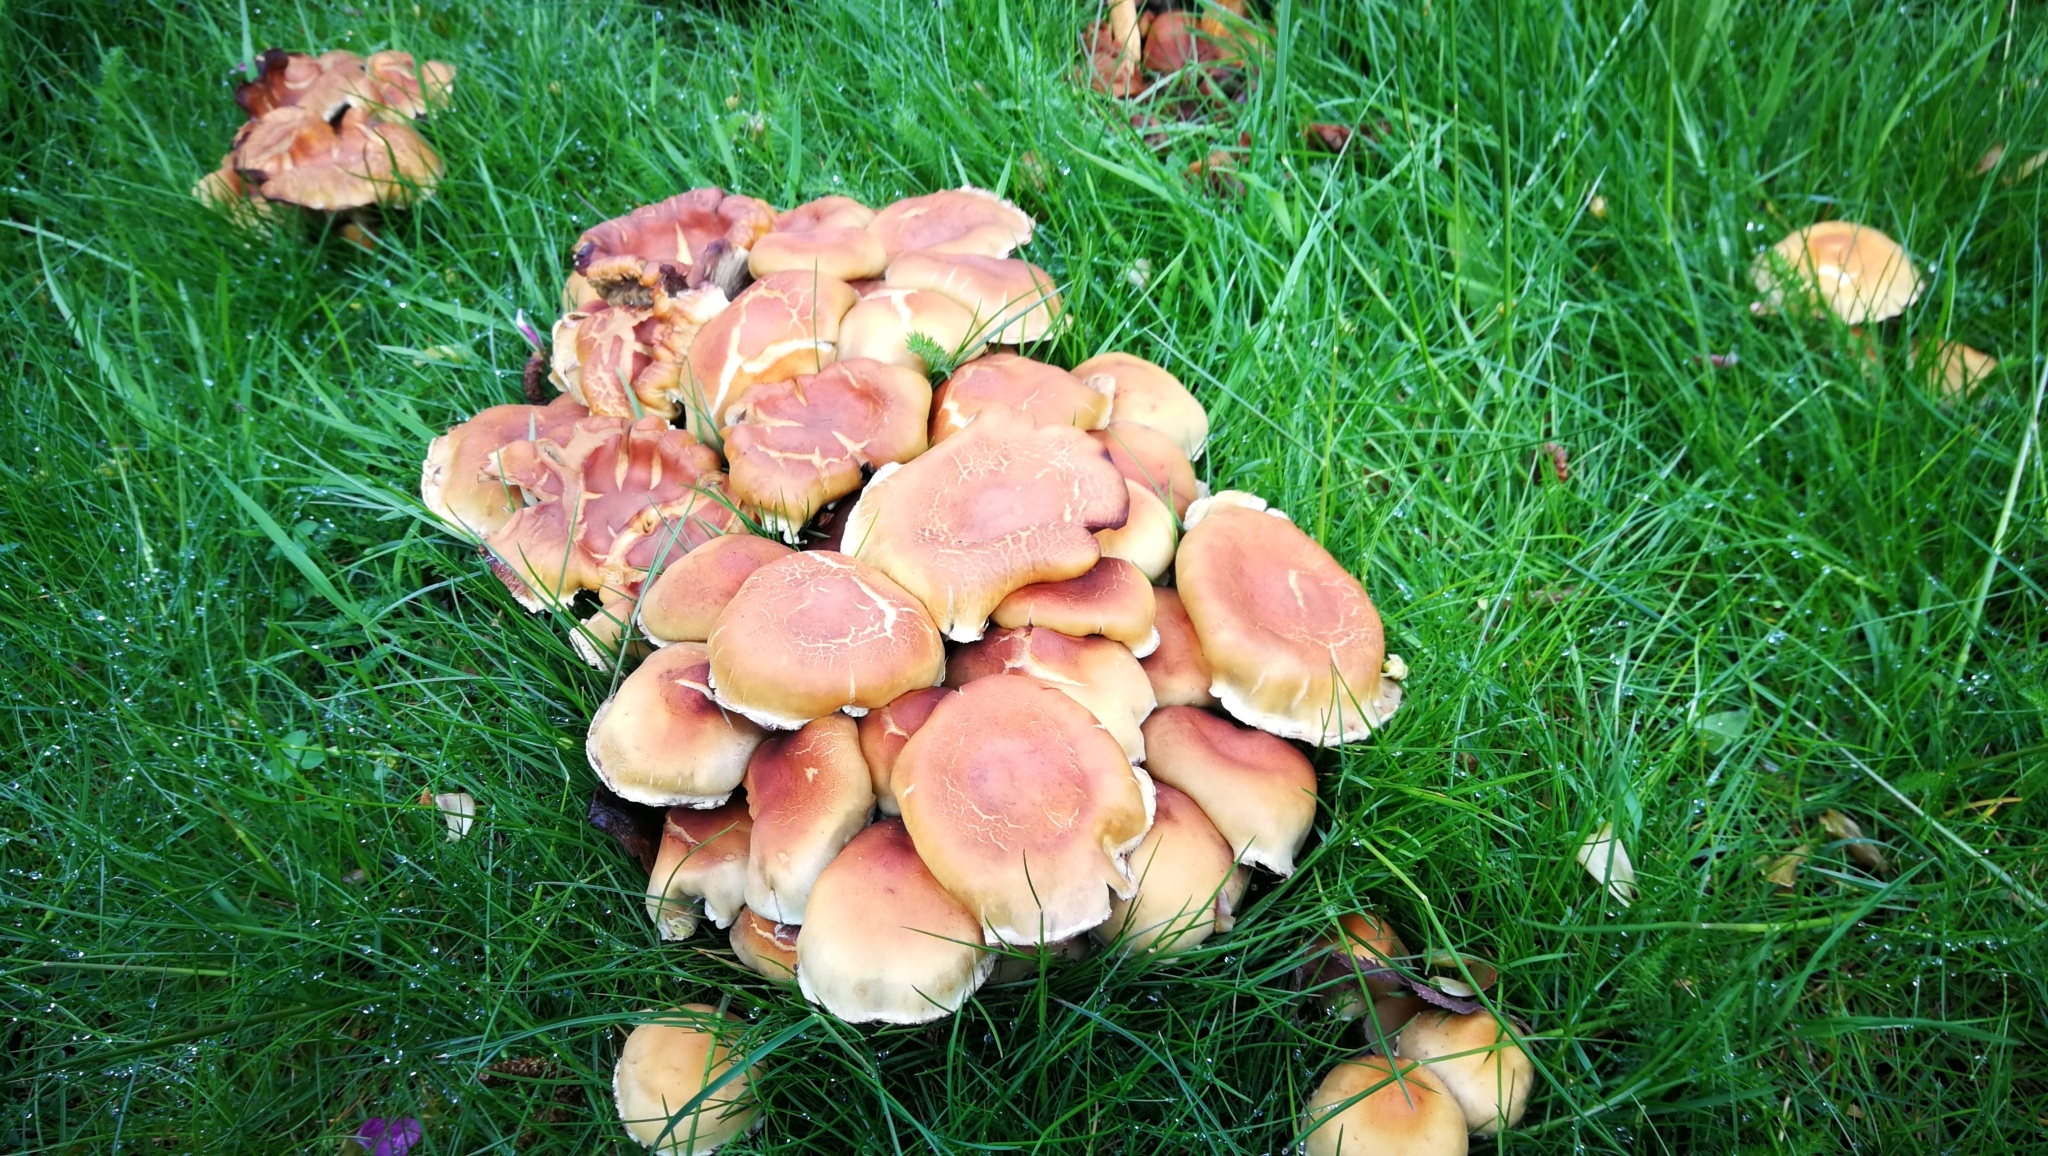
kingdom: Fungi
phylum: Basidiomycota
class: Agaricomycetes
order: Agaricales
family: Strophariaceae
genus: Hypholoma
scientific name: Hypholoma fasciculare
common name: Sulphur tuft
